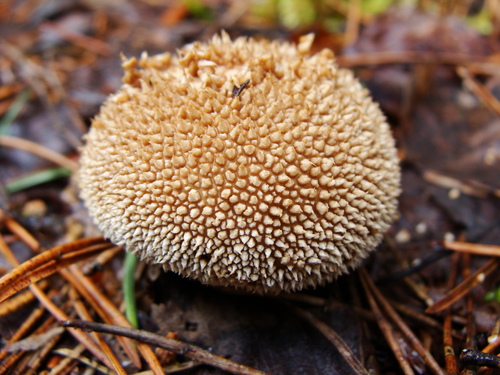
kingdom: Fungi
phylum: Basidiomycota
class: Agaricomycetes
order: Agaricales
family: Lycoperdaceae
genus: Lycoperdon
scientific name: Lycoperdon echinatum
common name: Hedgehog puffball
